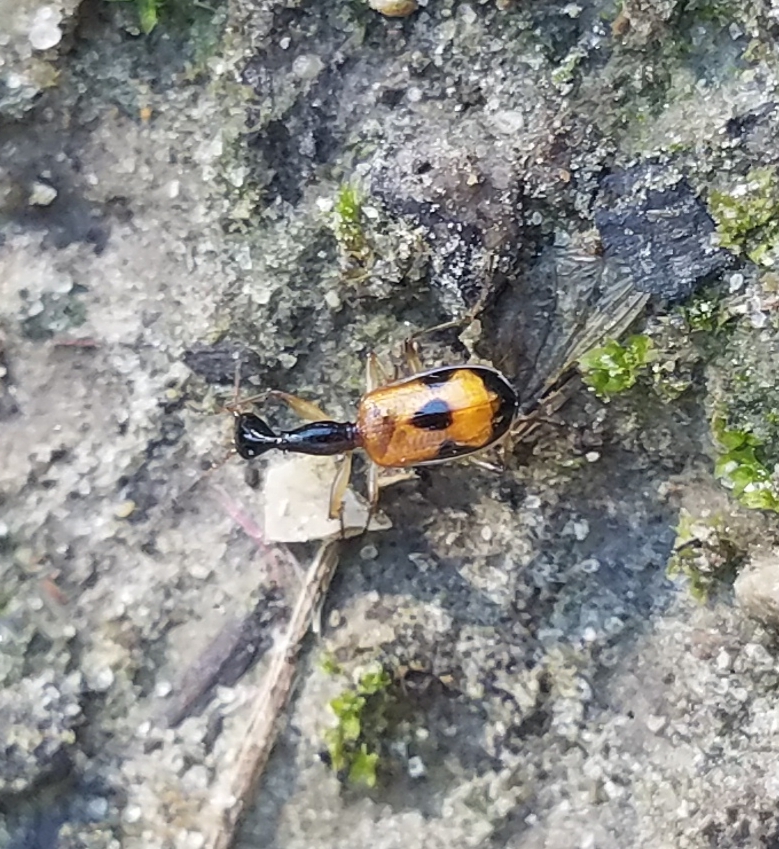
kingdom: Animalia
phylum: Arthropoda
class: Insecta
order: Coleoptera
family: Carabidae
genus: Colliuris
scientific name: Colliuris pensylvanica
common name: Long-necked ground beetle
